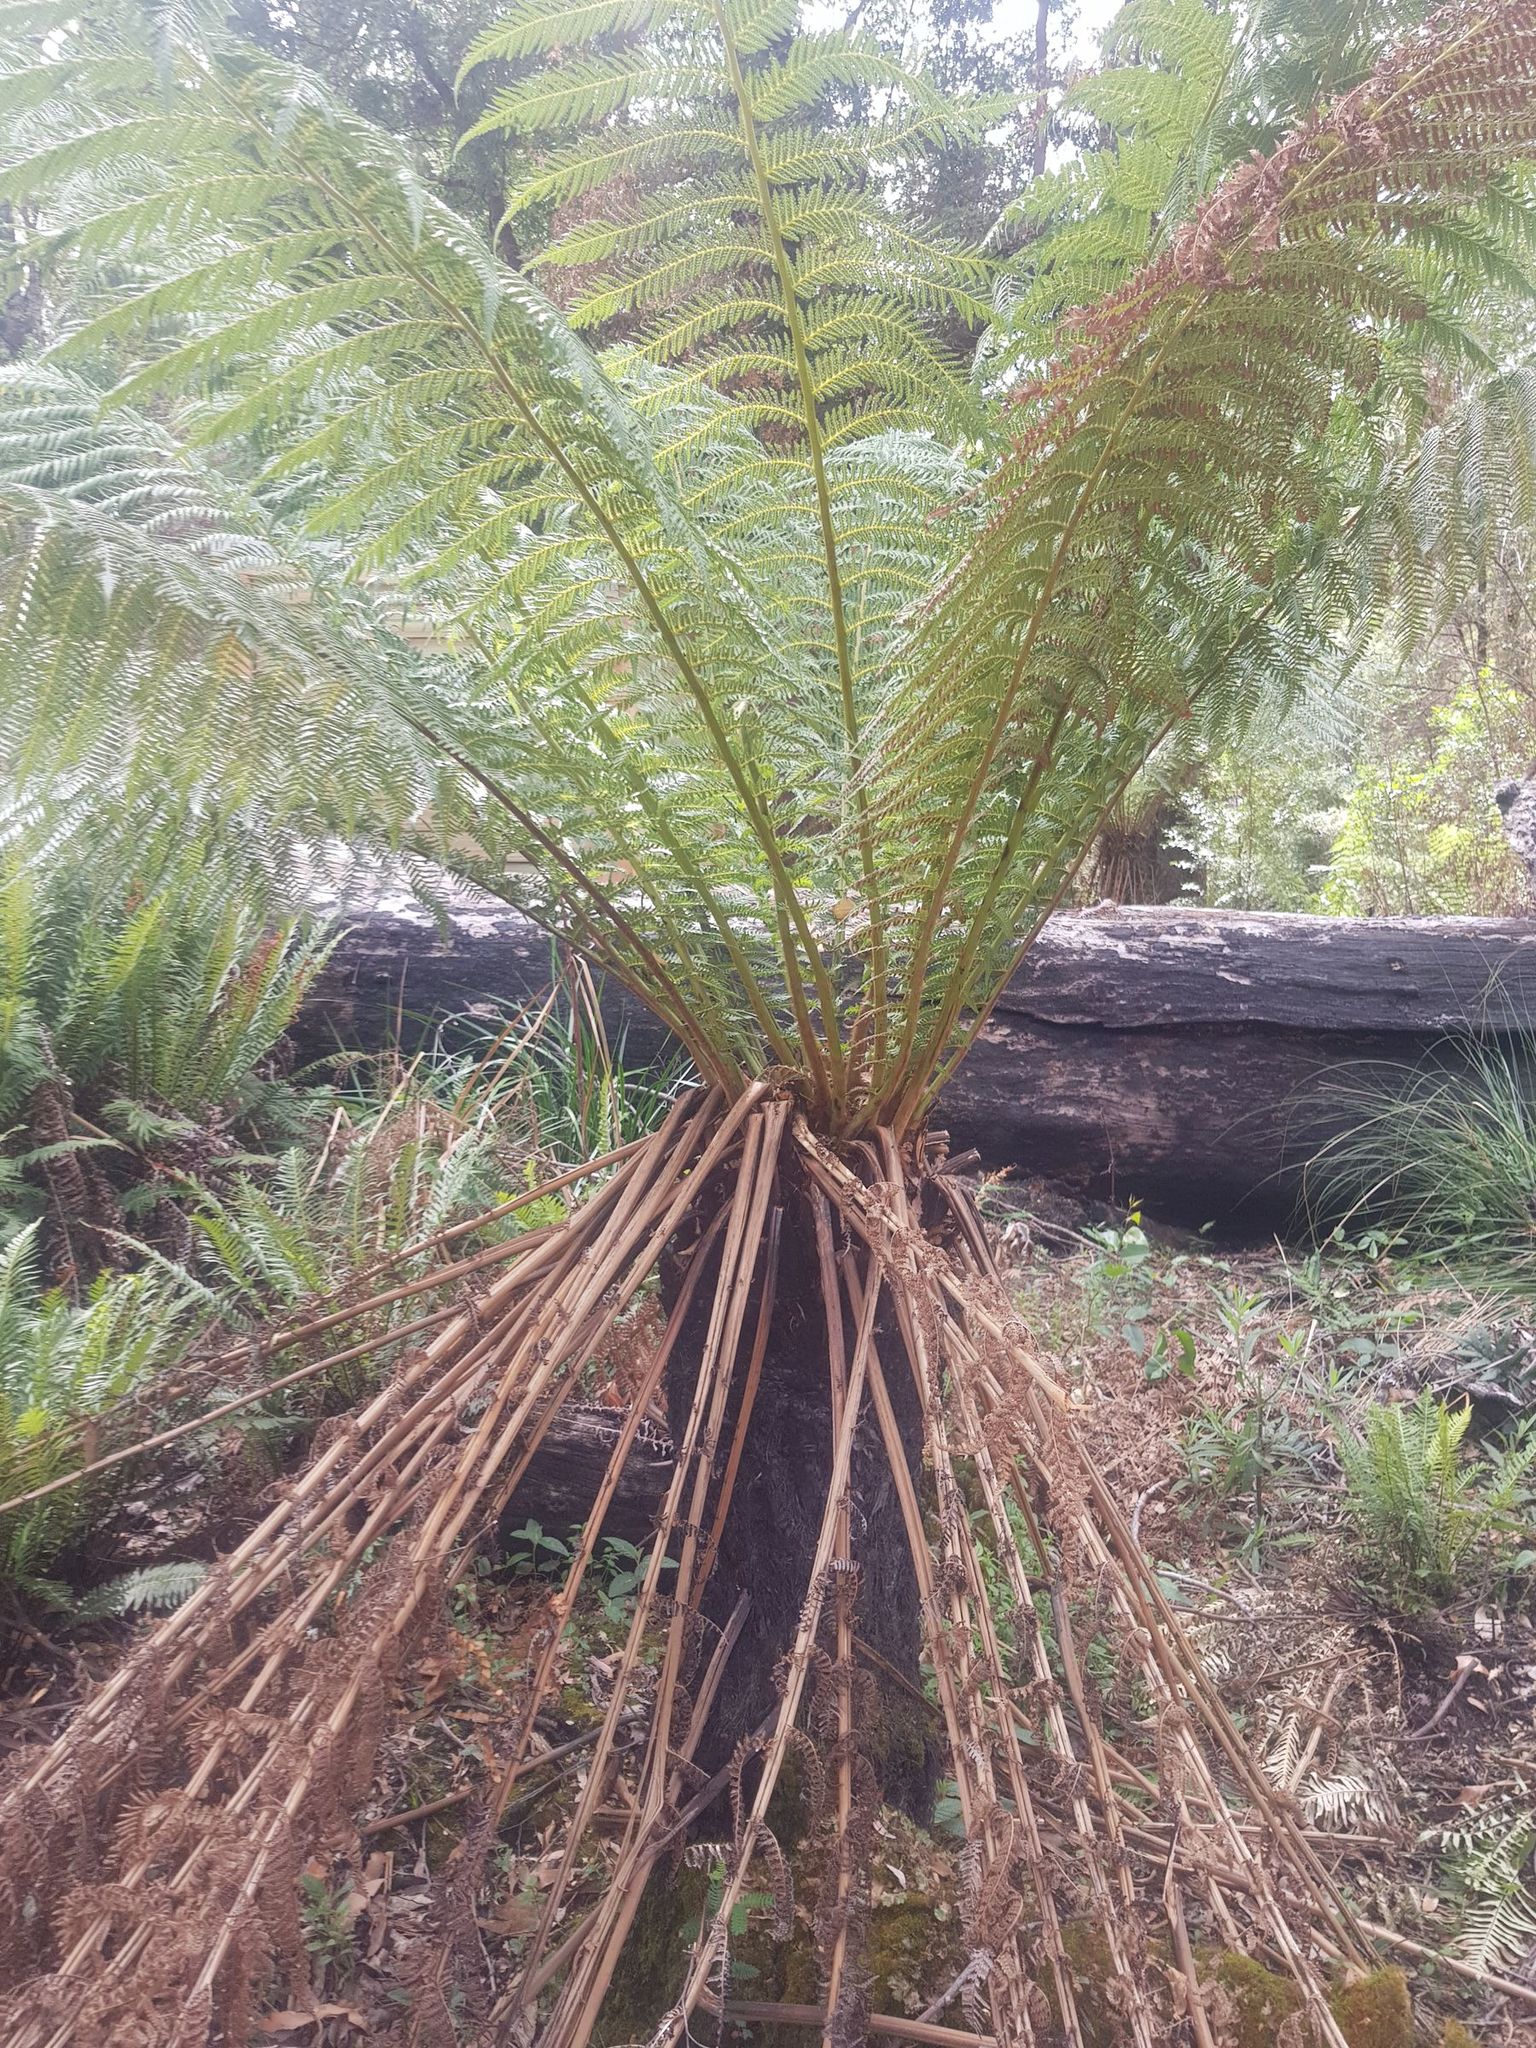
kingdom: Plantae
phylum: Tracheophyta
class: Polypodiopsida
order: Cyatheales
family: Dicksoniaceae
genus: Dicksonia
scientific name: Dicksonia antarctica
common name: Australian treefern
